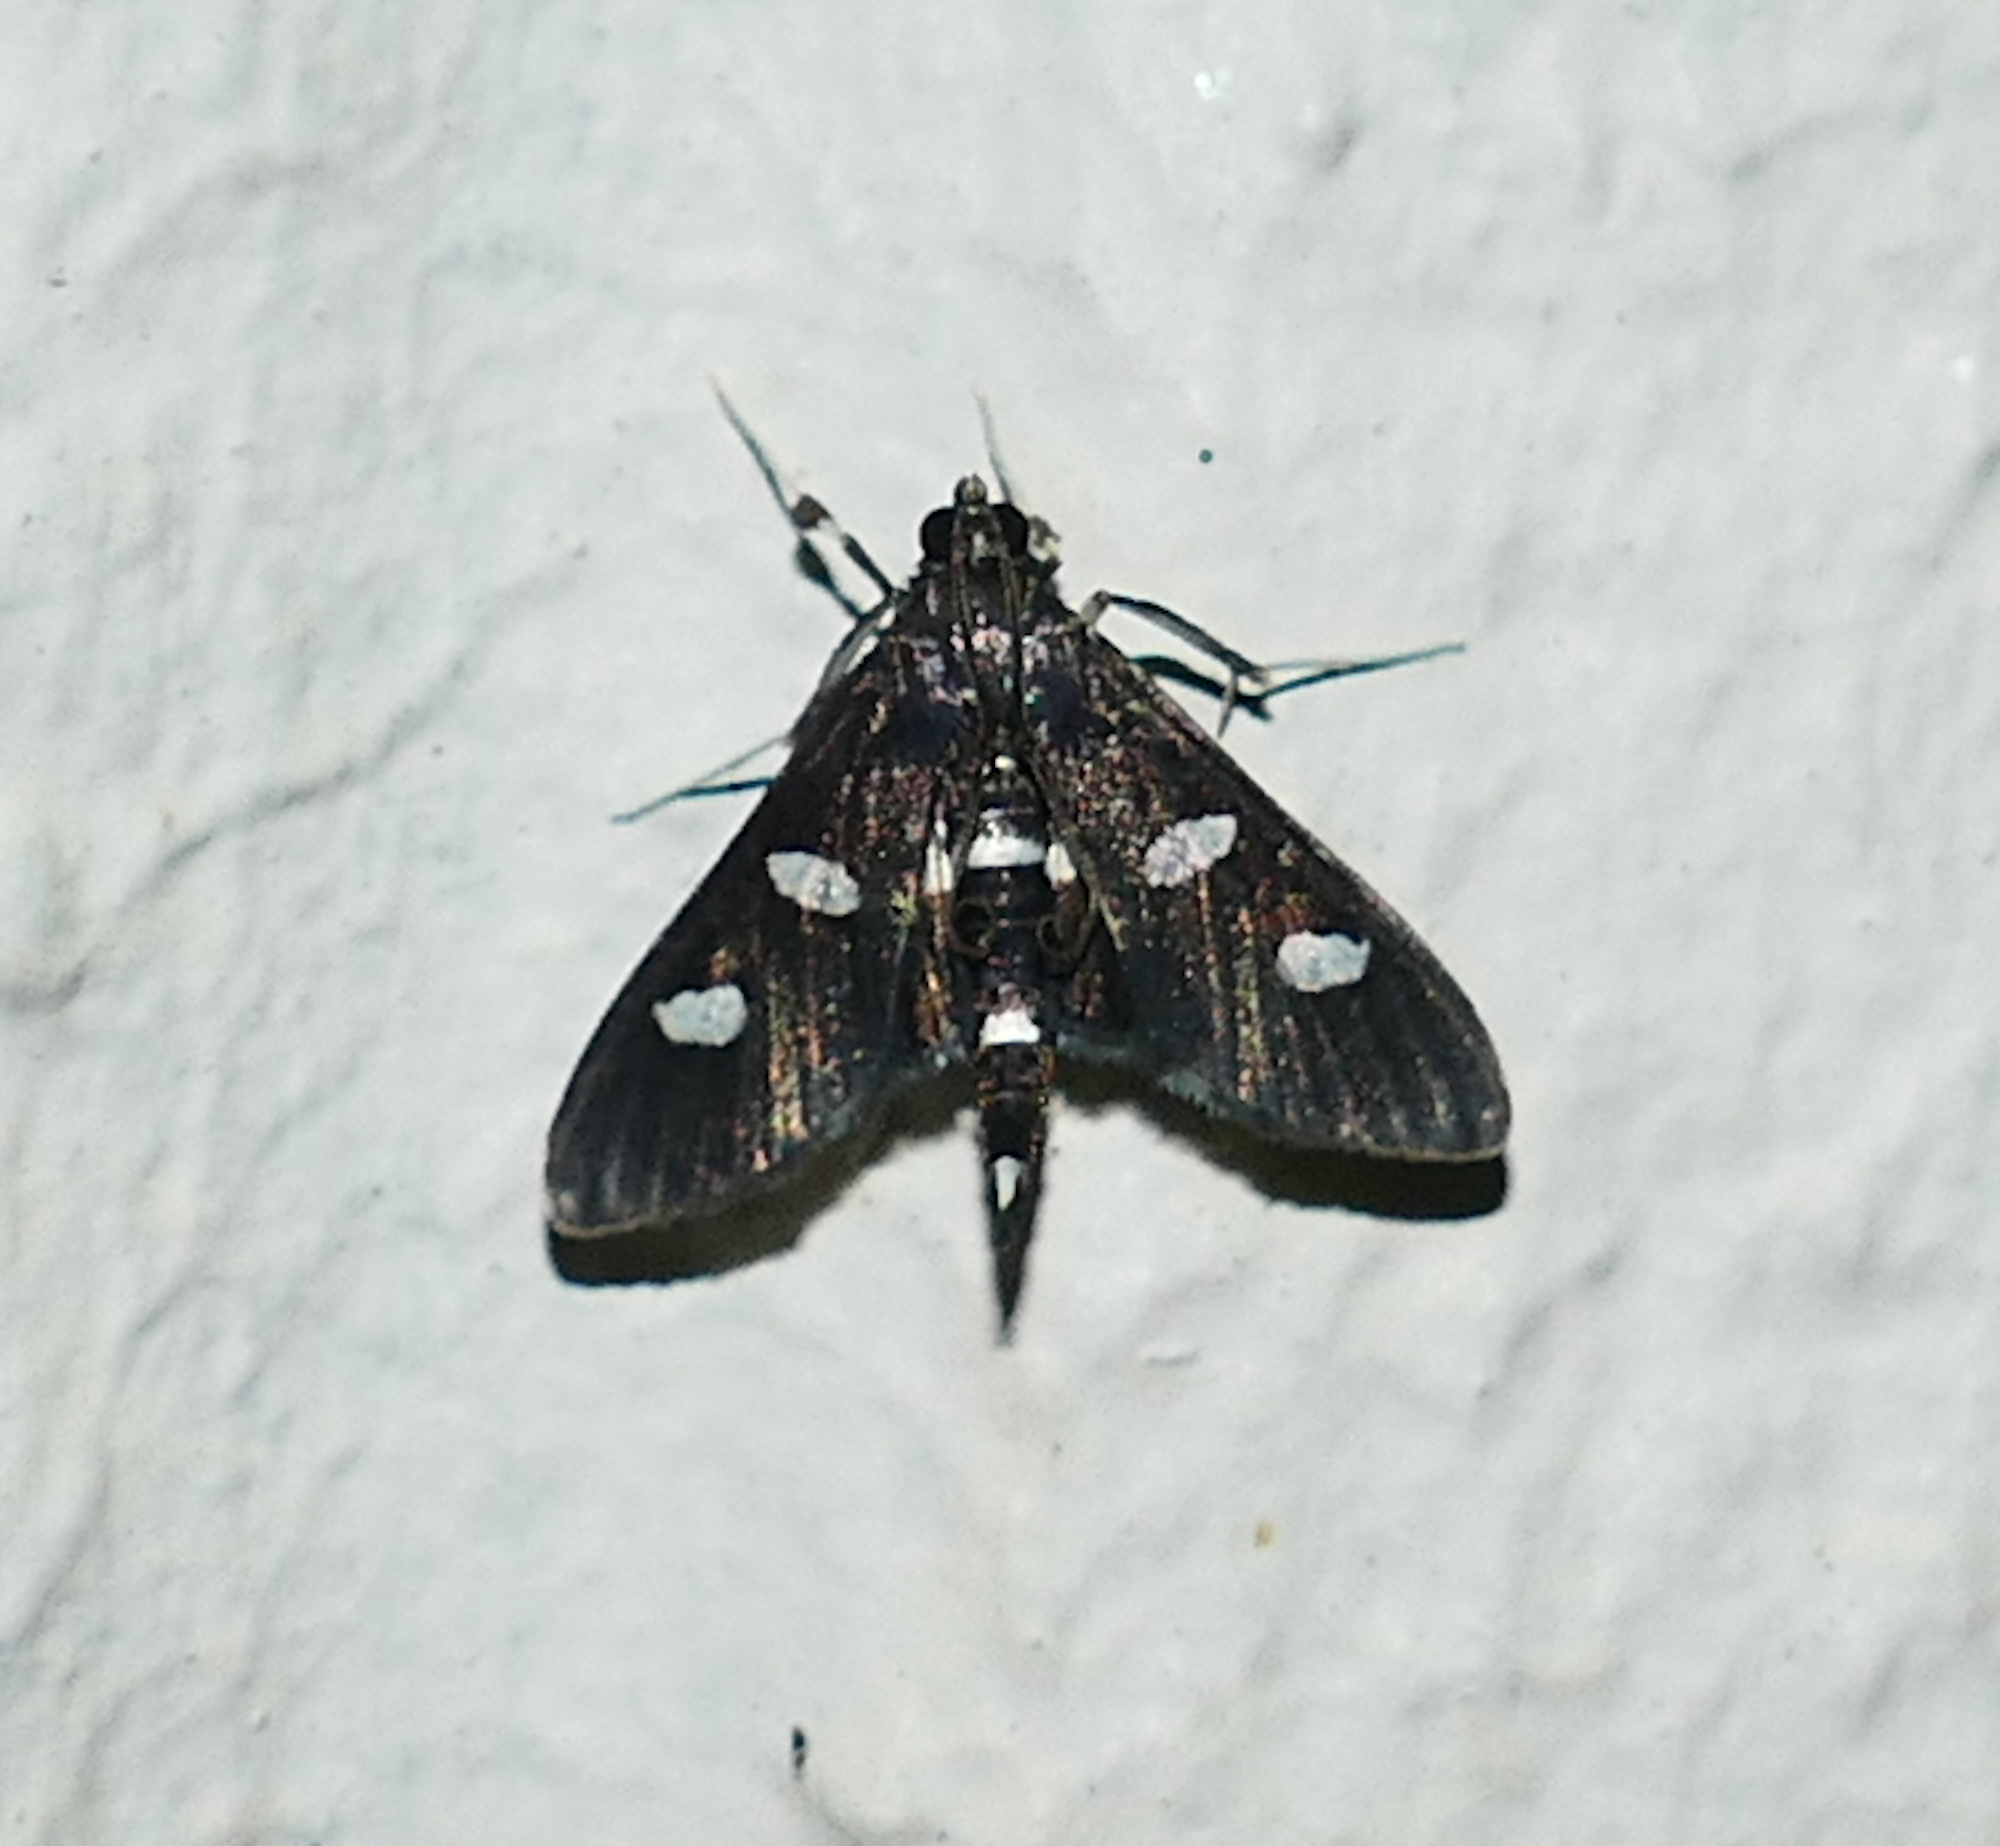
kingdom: Animalia
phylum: Arthropoda
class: Insecta
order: Lepidoptera
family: Crambidae
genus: Desmia
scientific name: Desmia funeralis
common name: Grape leaf folder moth
